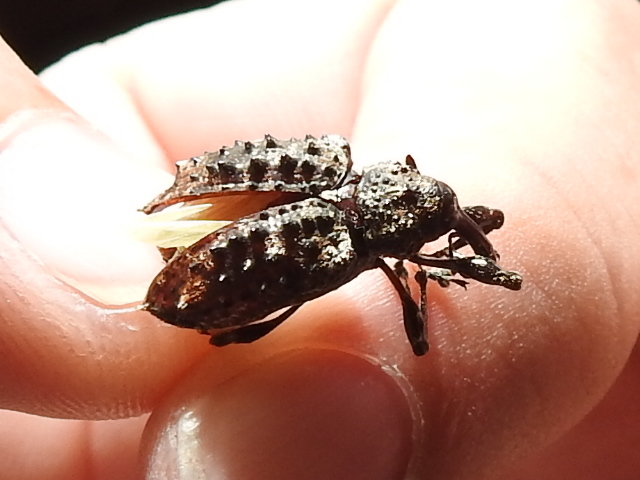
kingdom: Animalia
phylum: Arthropoda
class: Insecta
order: Coleoptera
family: Curculionidae
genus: Heilipodus
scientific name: Heilipodus
